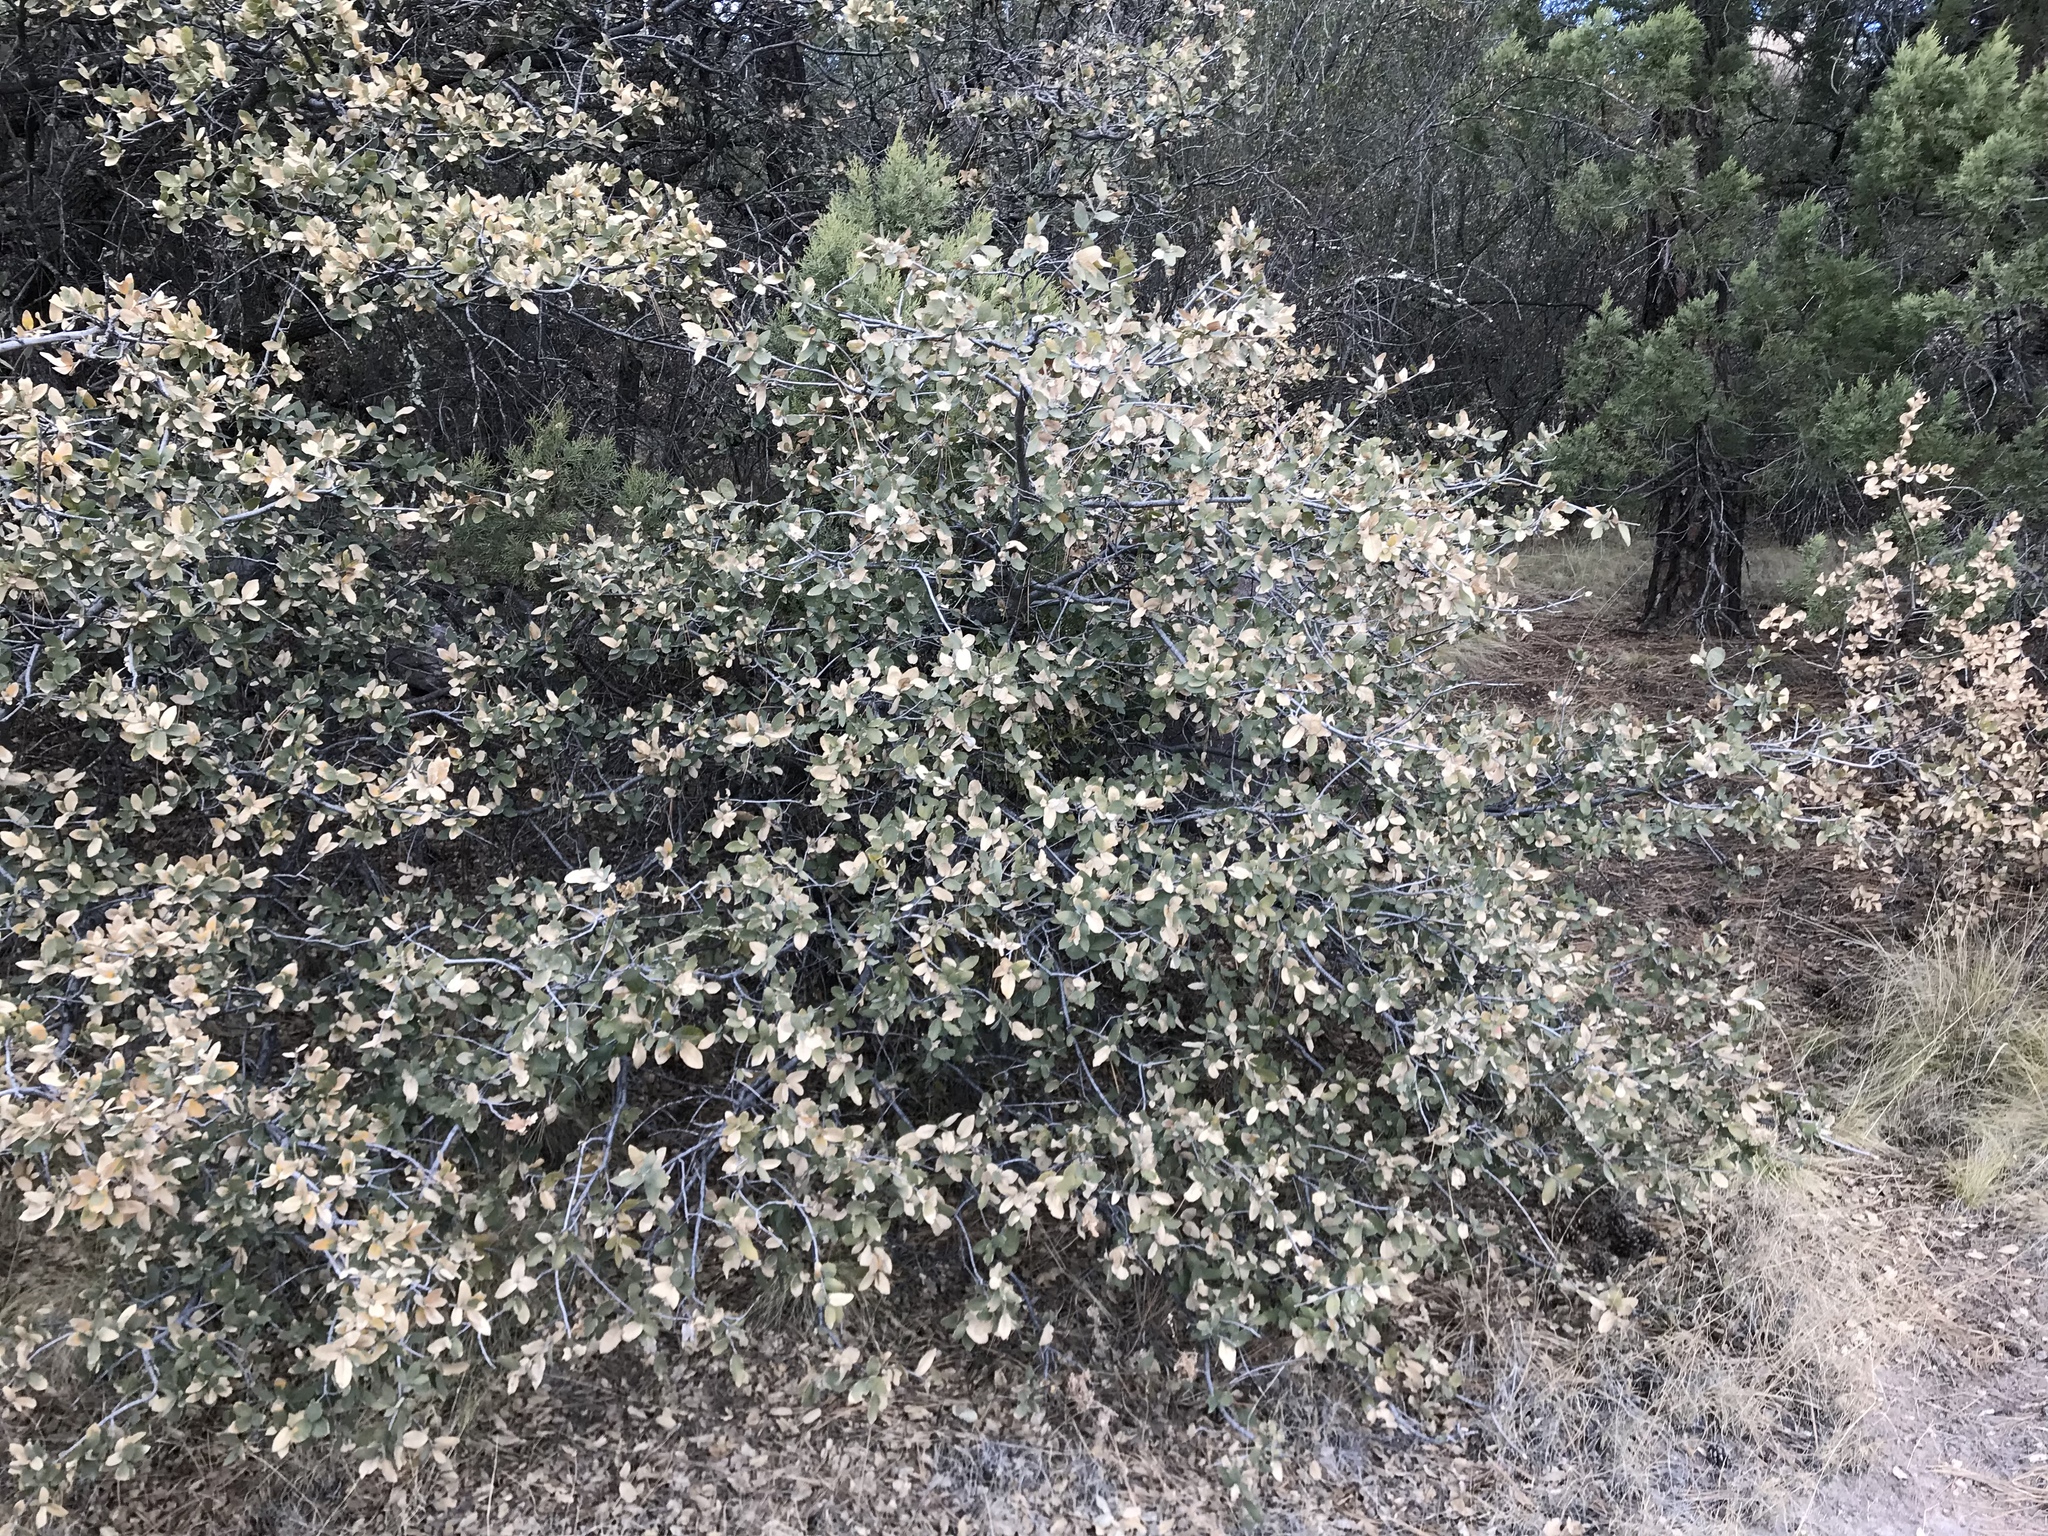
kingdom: Plantae
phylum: Tracheophyta
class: Magnoliopsida
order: Fagales
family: Fagaceae
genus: Quercus
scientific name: Quercus turbinella
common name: Sonoran scrub oak
